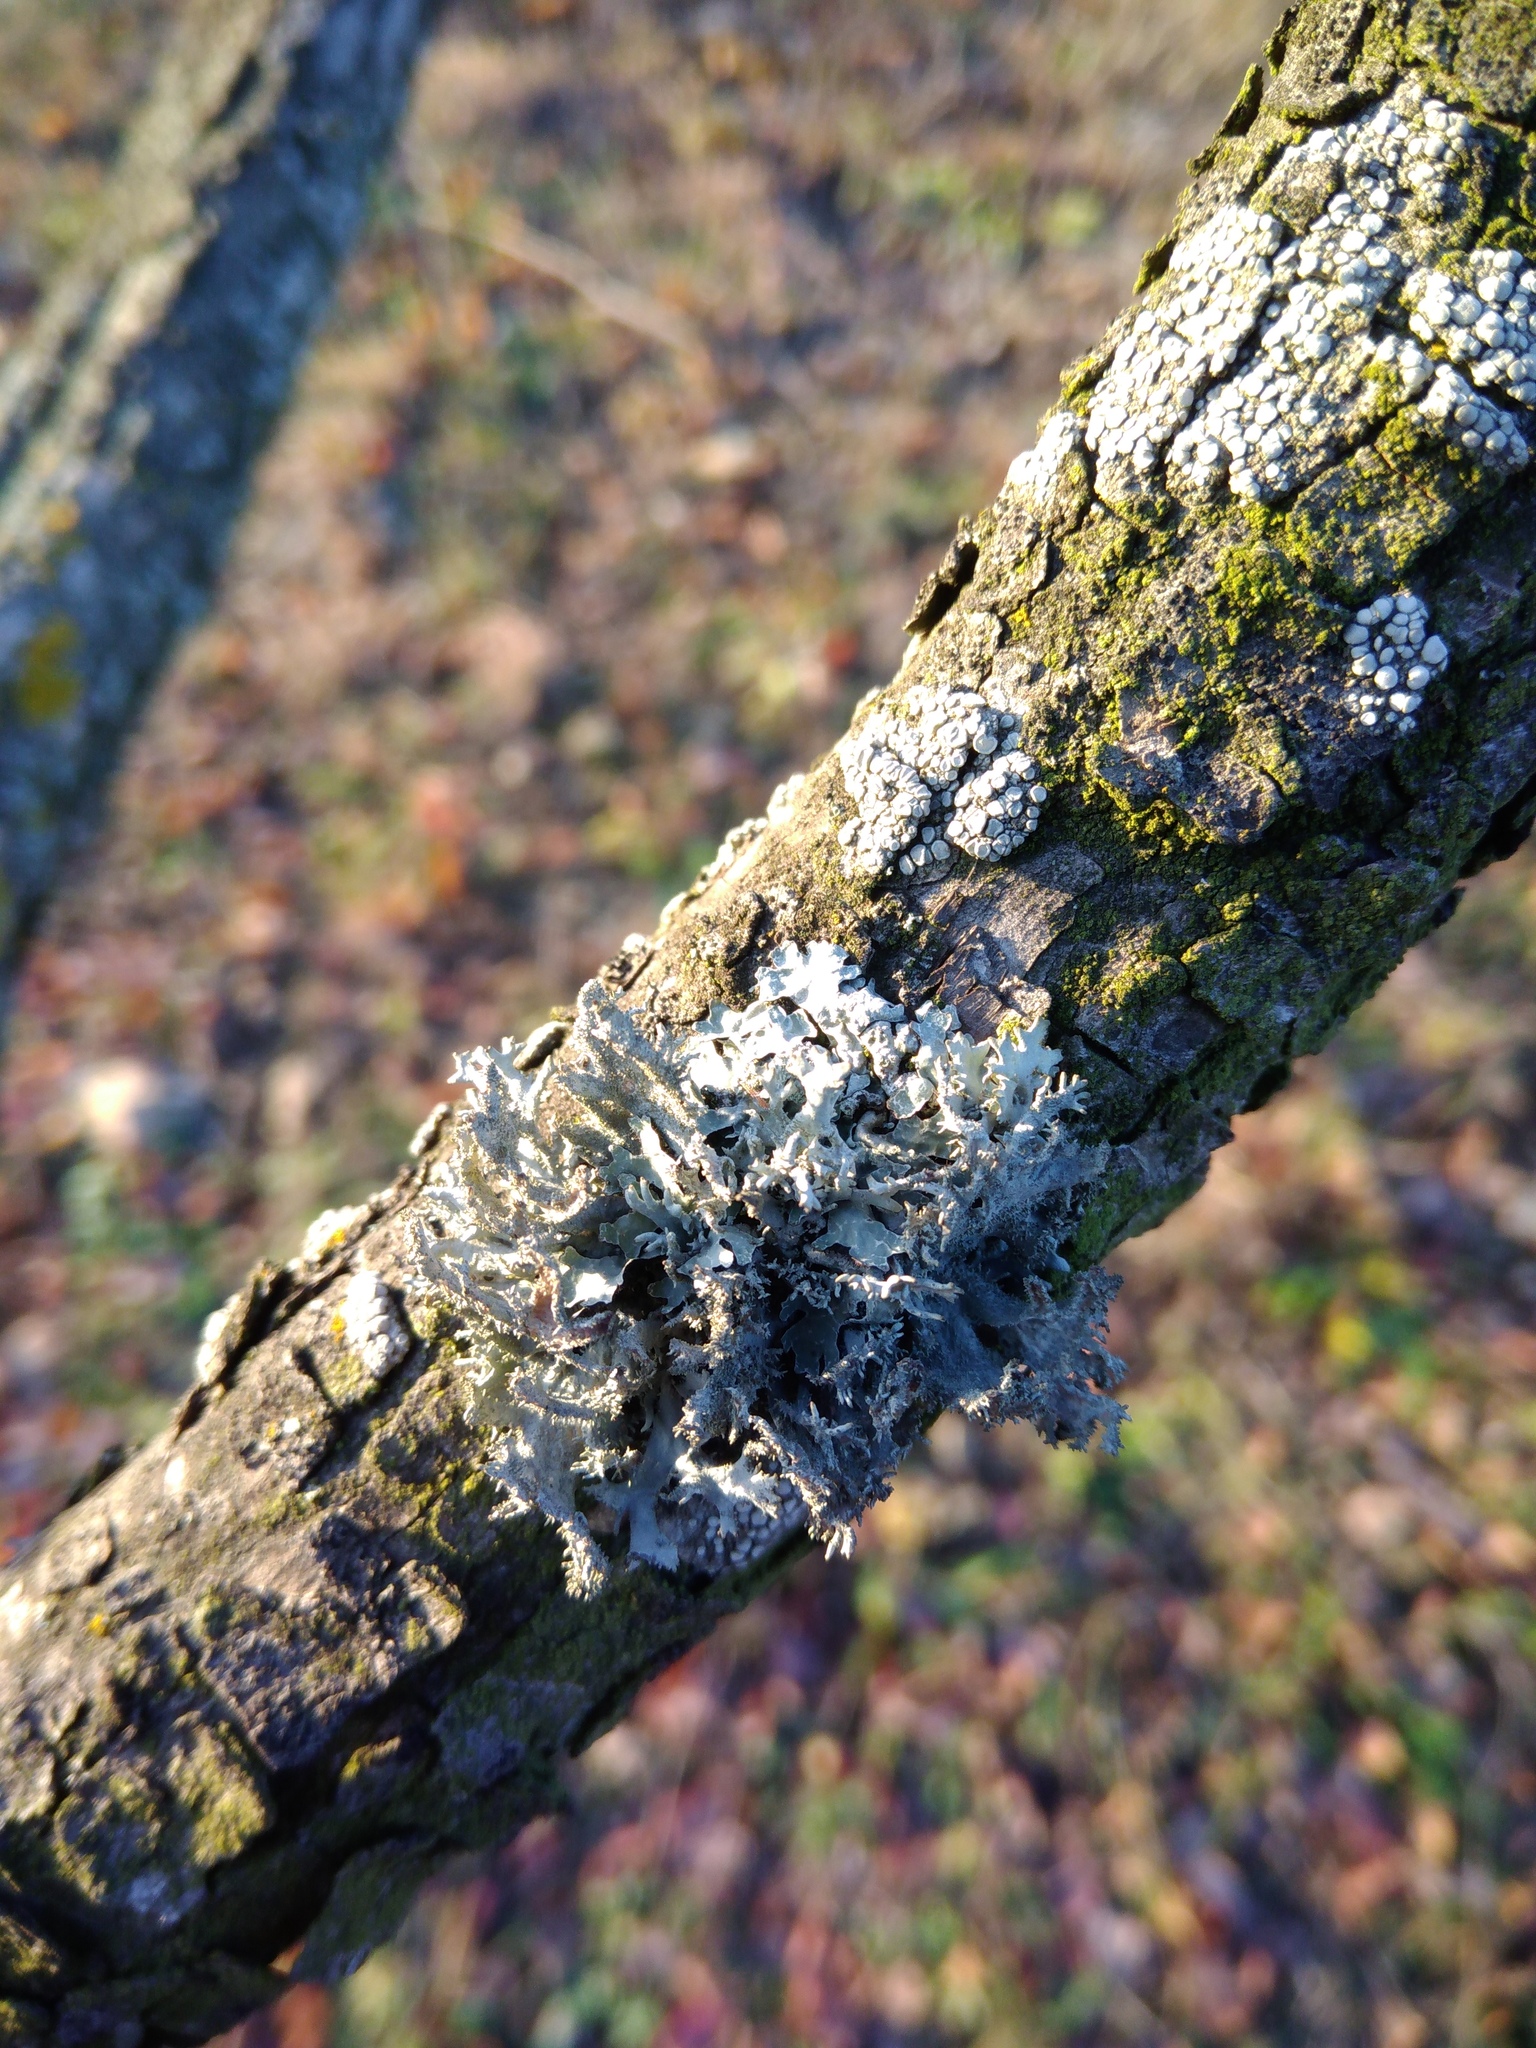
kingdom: Fungi
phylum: Ascomycota
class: Lecanoromycetes
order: Lecanorales
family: Parmeliaceae
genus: Pseudevernia
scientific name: Pseudevernia furfuracea
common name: Tree moss
